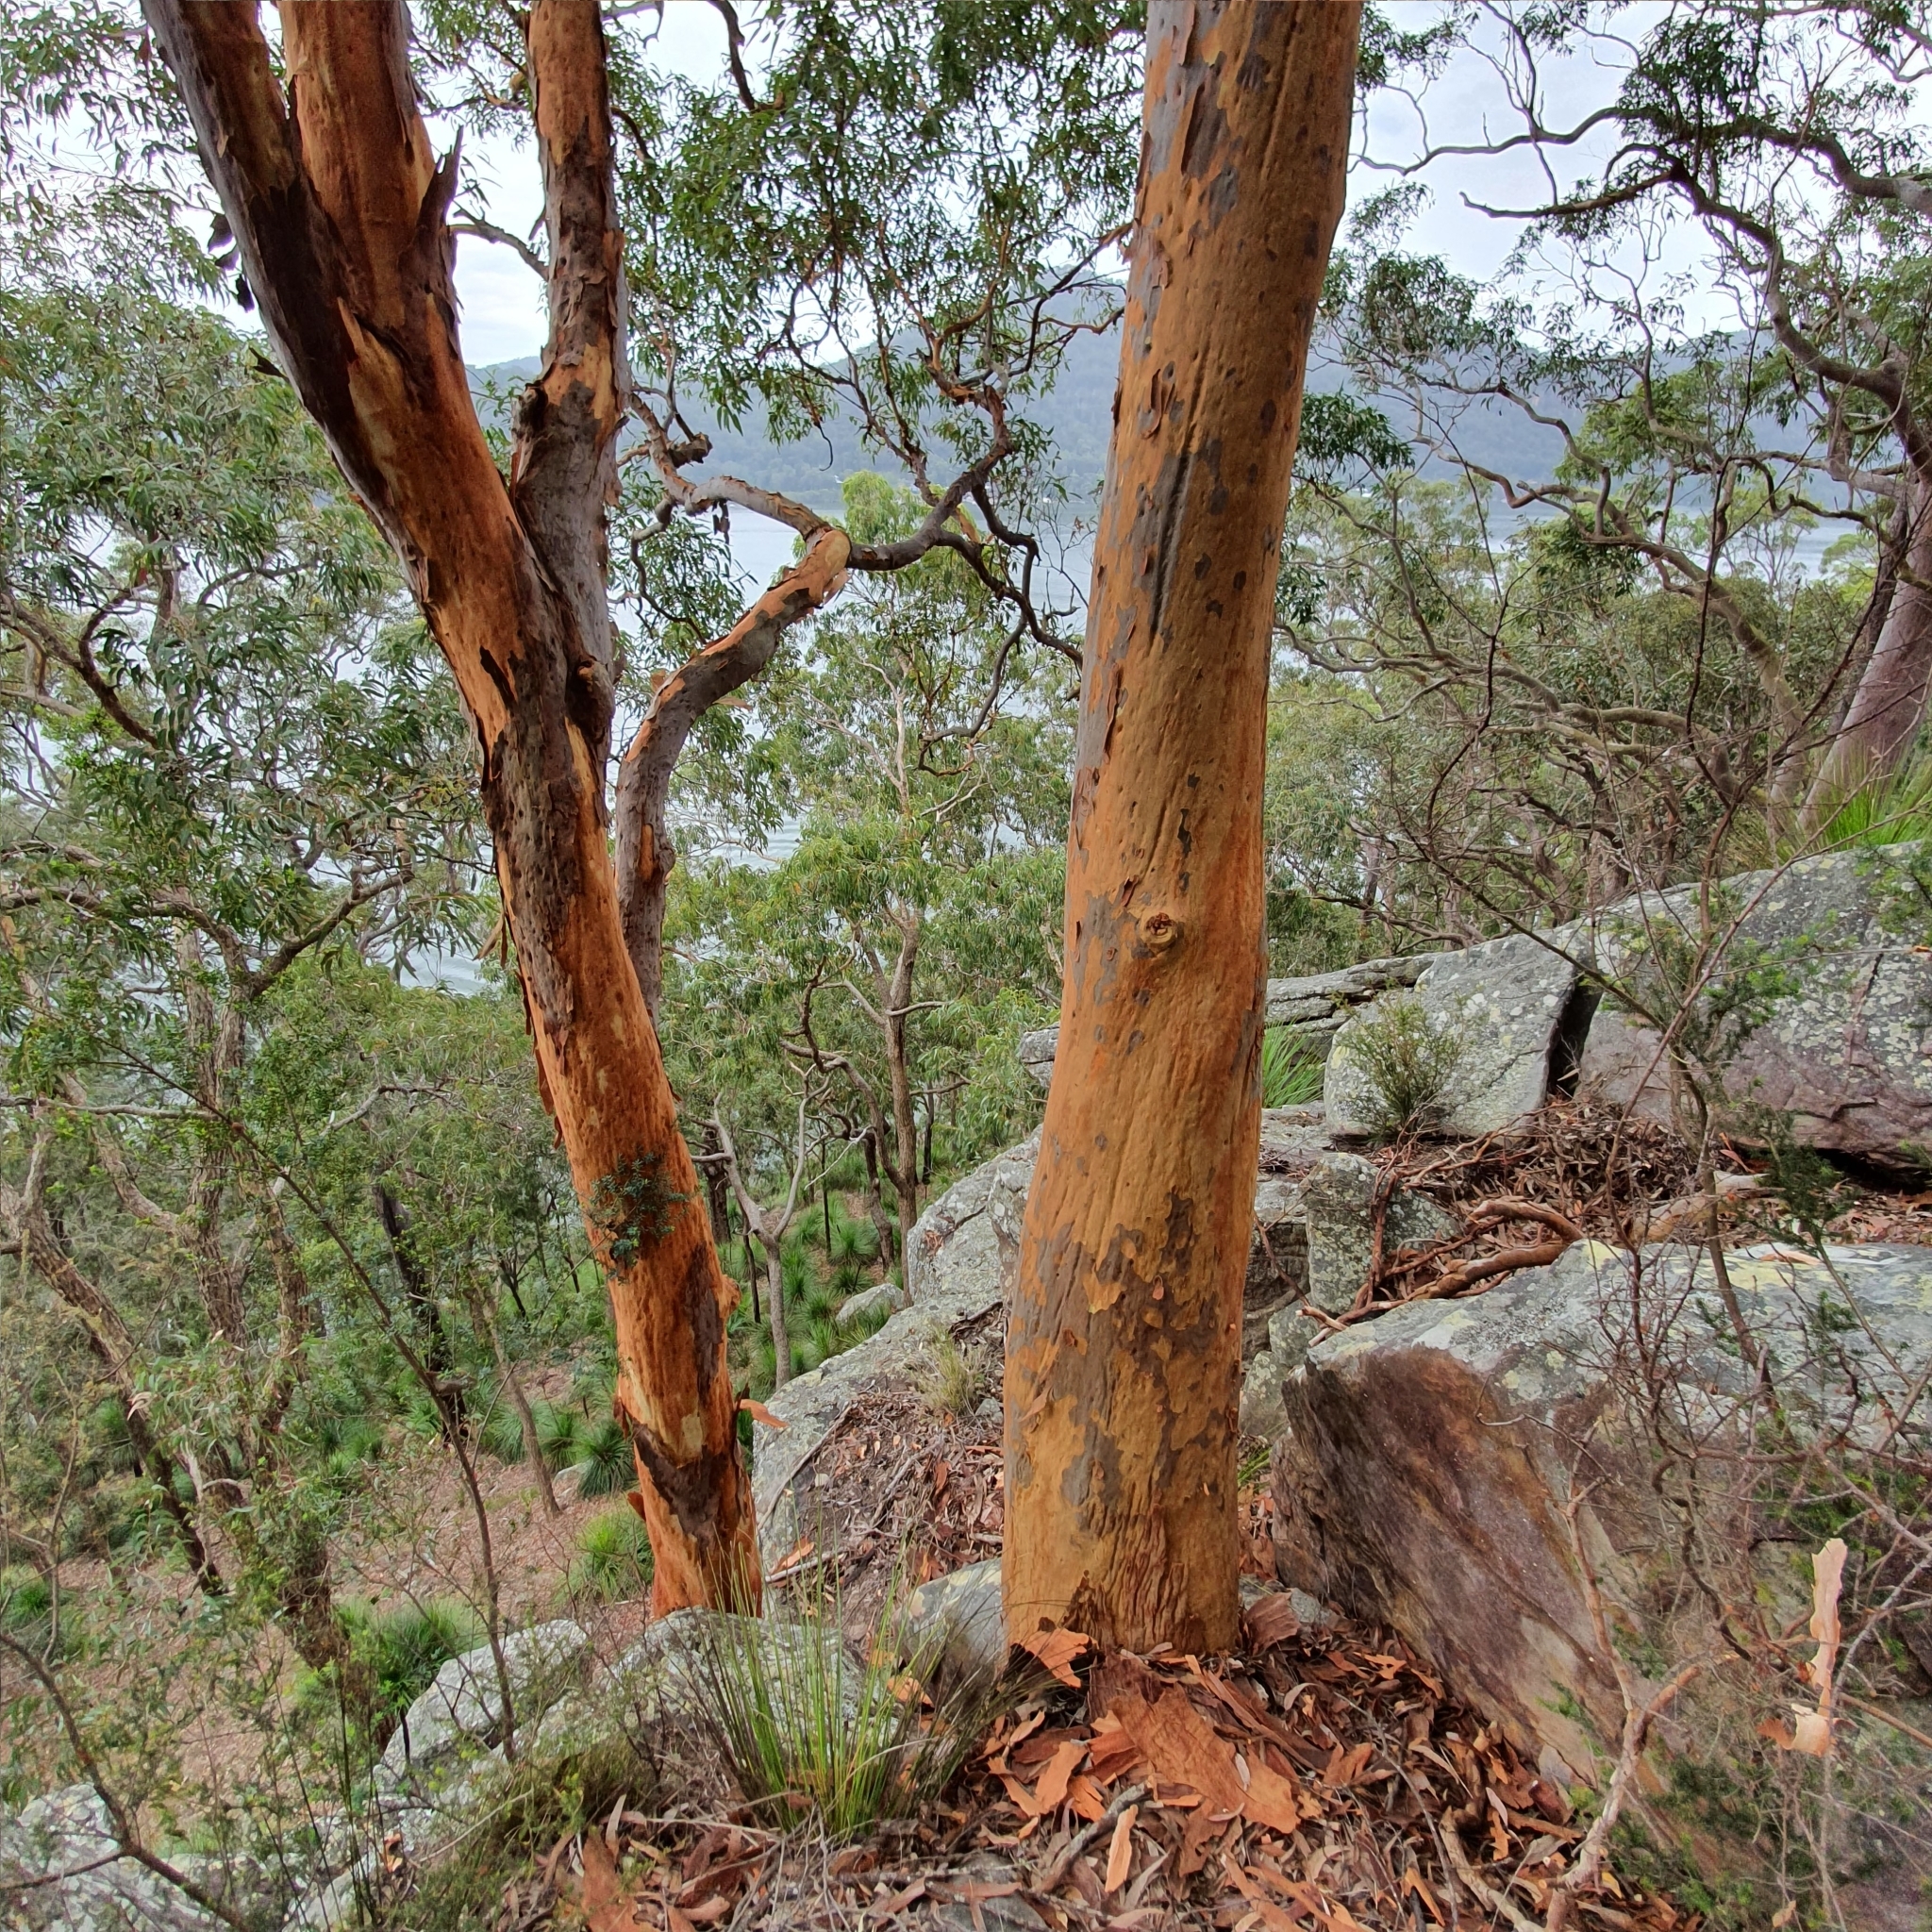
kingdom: Plantae
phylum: Tracheophyta
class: Magnoliopsida
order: Myrtales
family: Myrtaceae
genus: Angophora
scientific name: Angophora costata
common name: Gum myrtle
